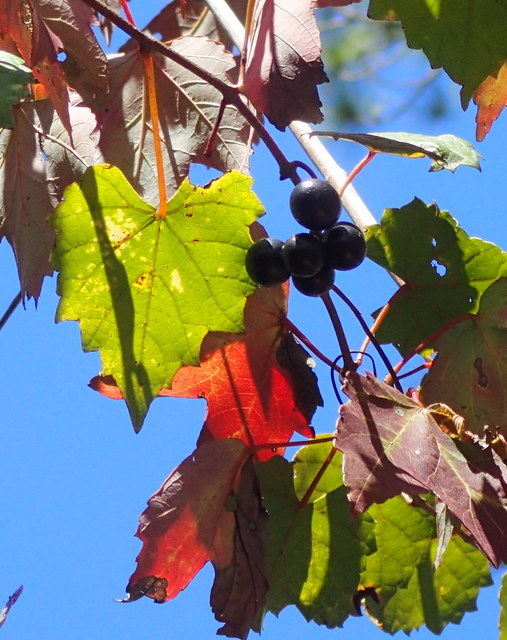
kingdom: Plantae
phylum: Tracheophyta
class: Magnoliopsida
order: Vitales
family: Vitaceae
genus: Vitis
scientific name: Vitis rotundifolia
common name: Muscadine grape
